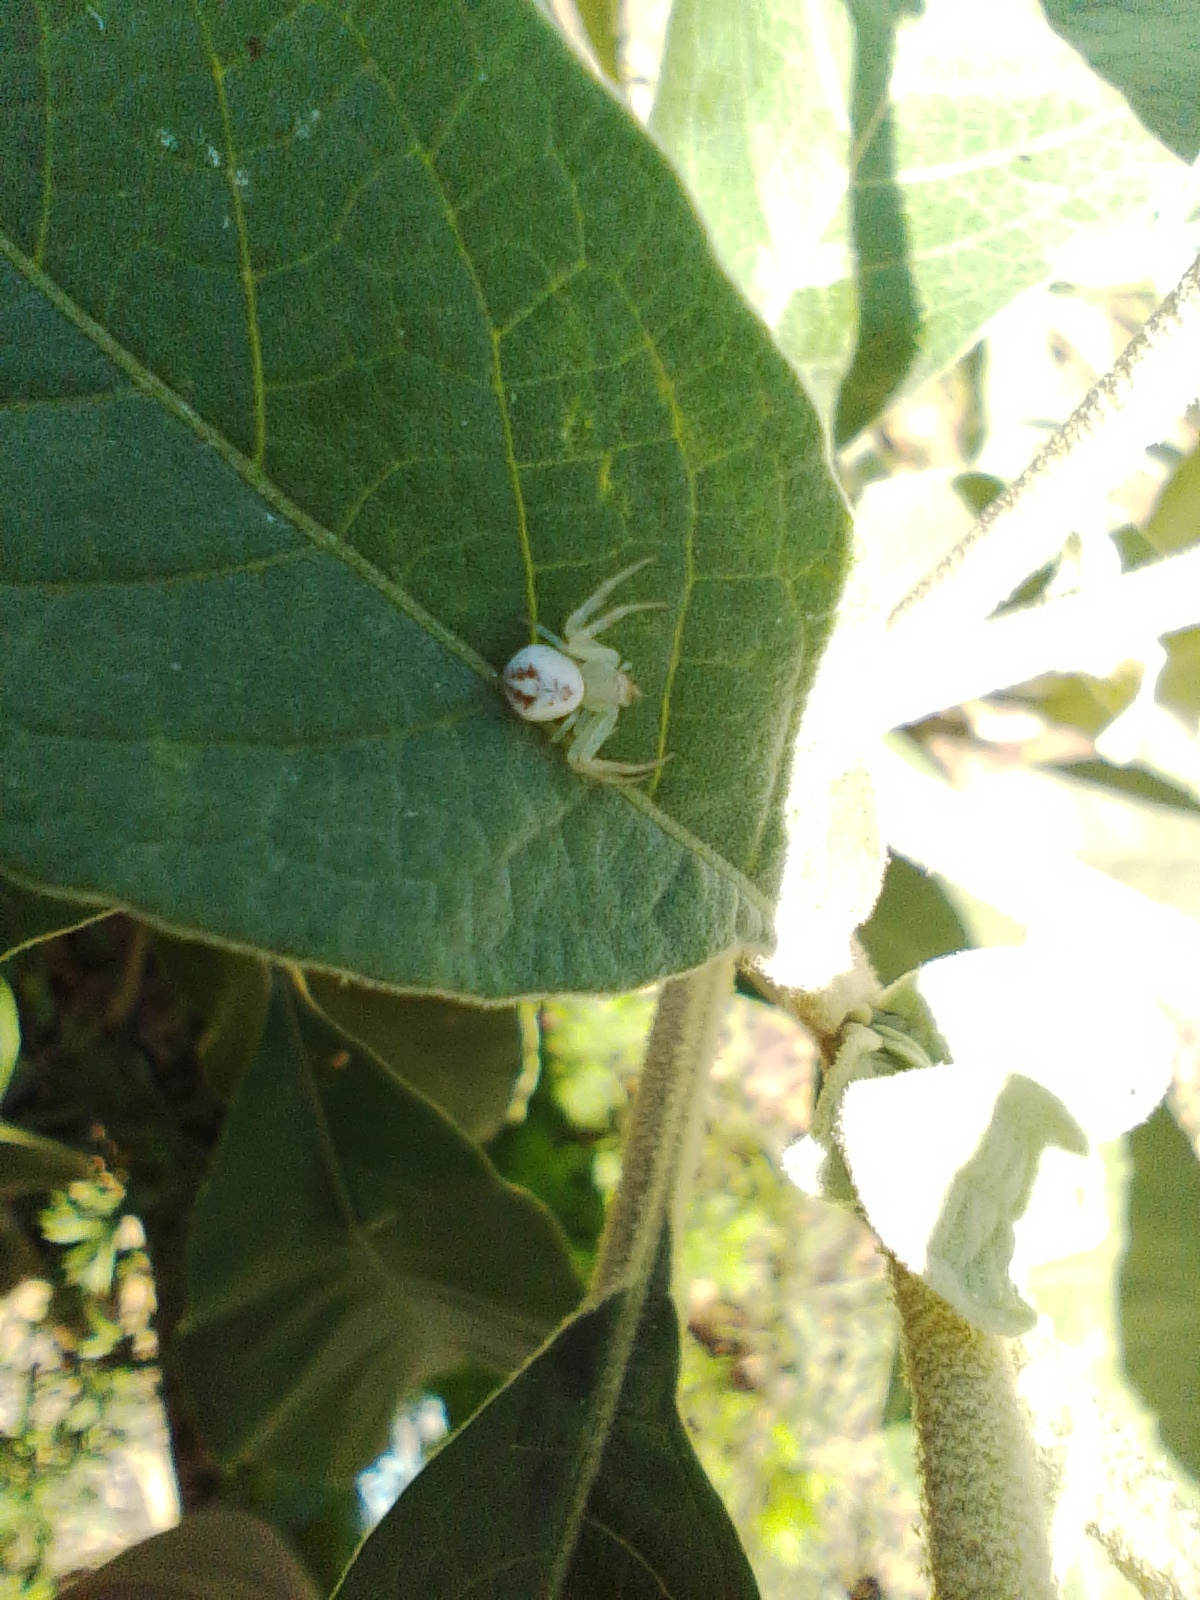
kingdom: Animalia
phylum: Arthropoda
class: Arachnida
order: Araneae
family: Thomisidae
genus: Misumenops
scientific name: Misumenops
